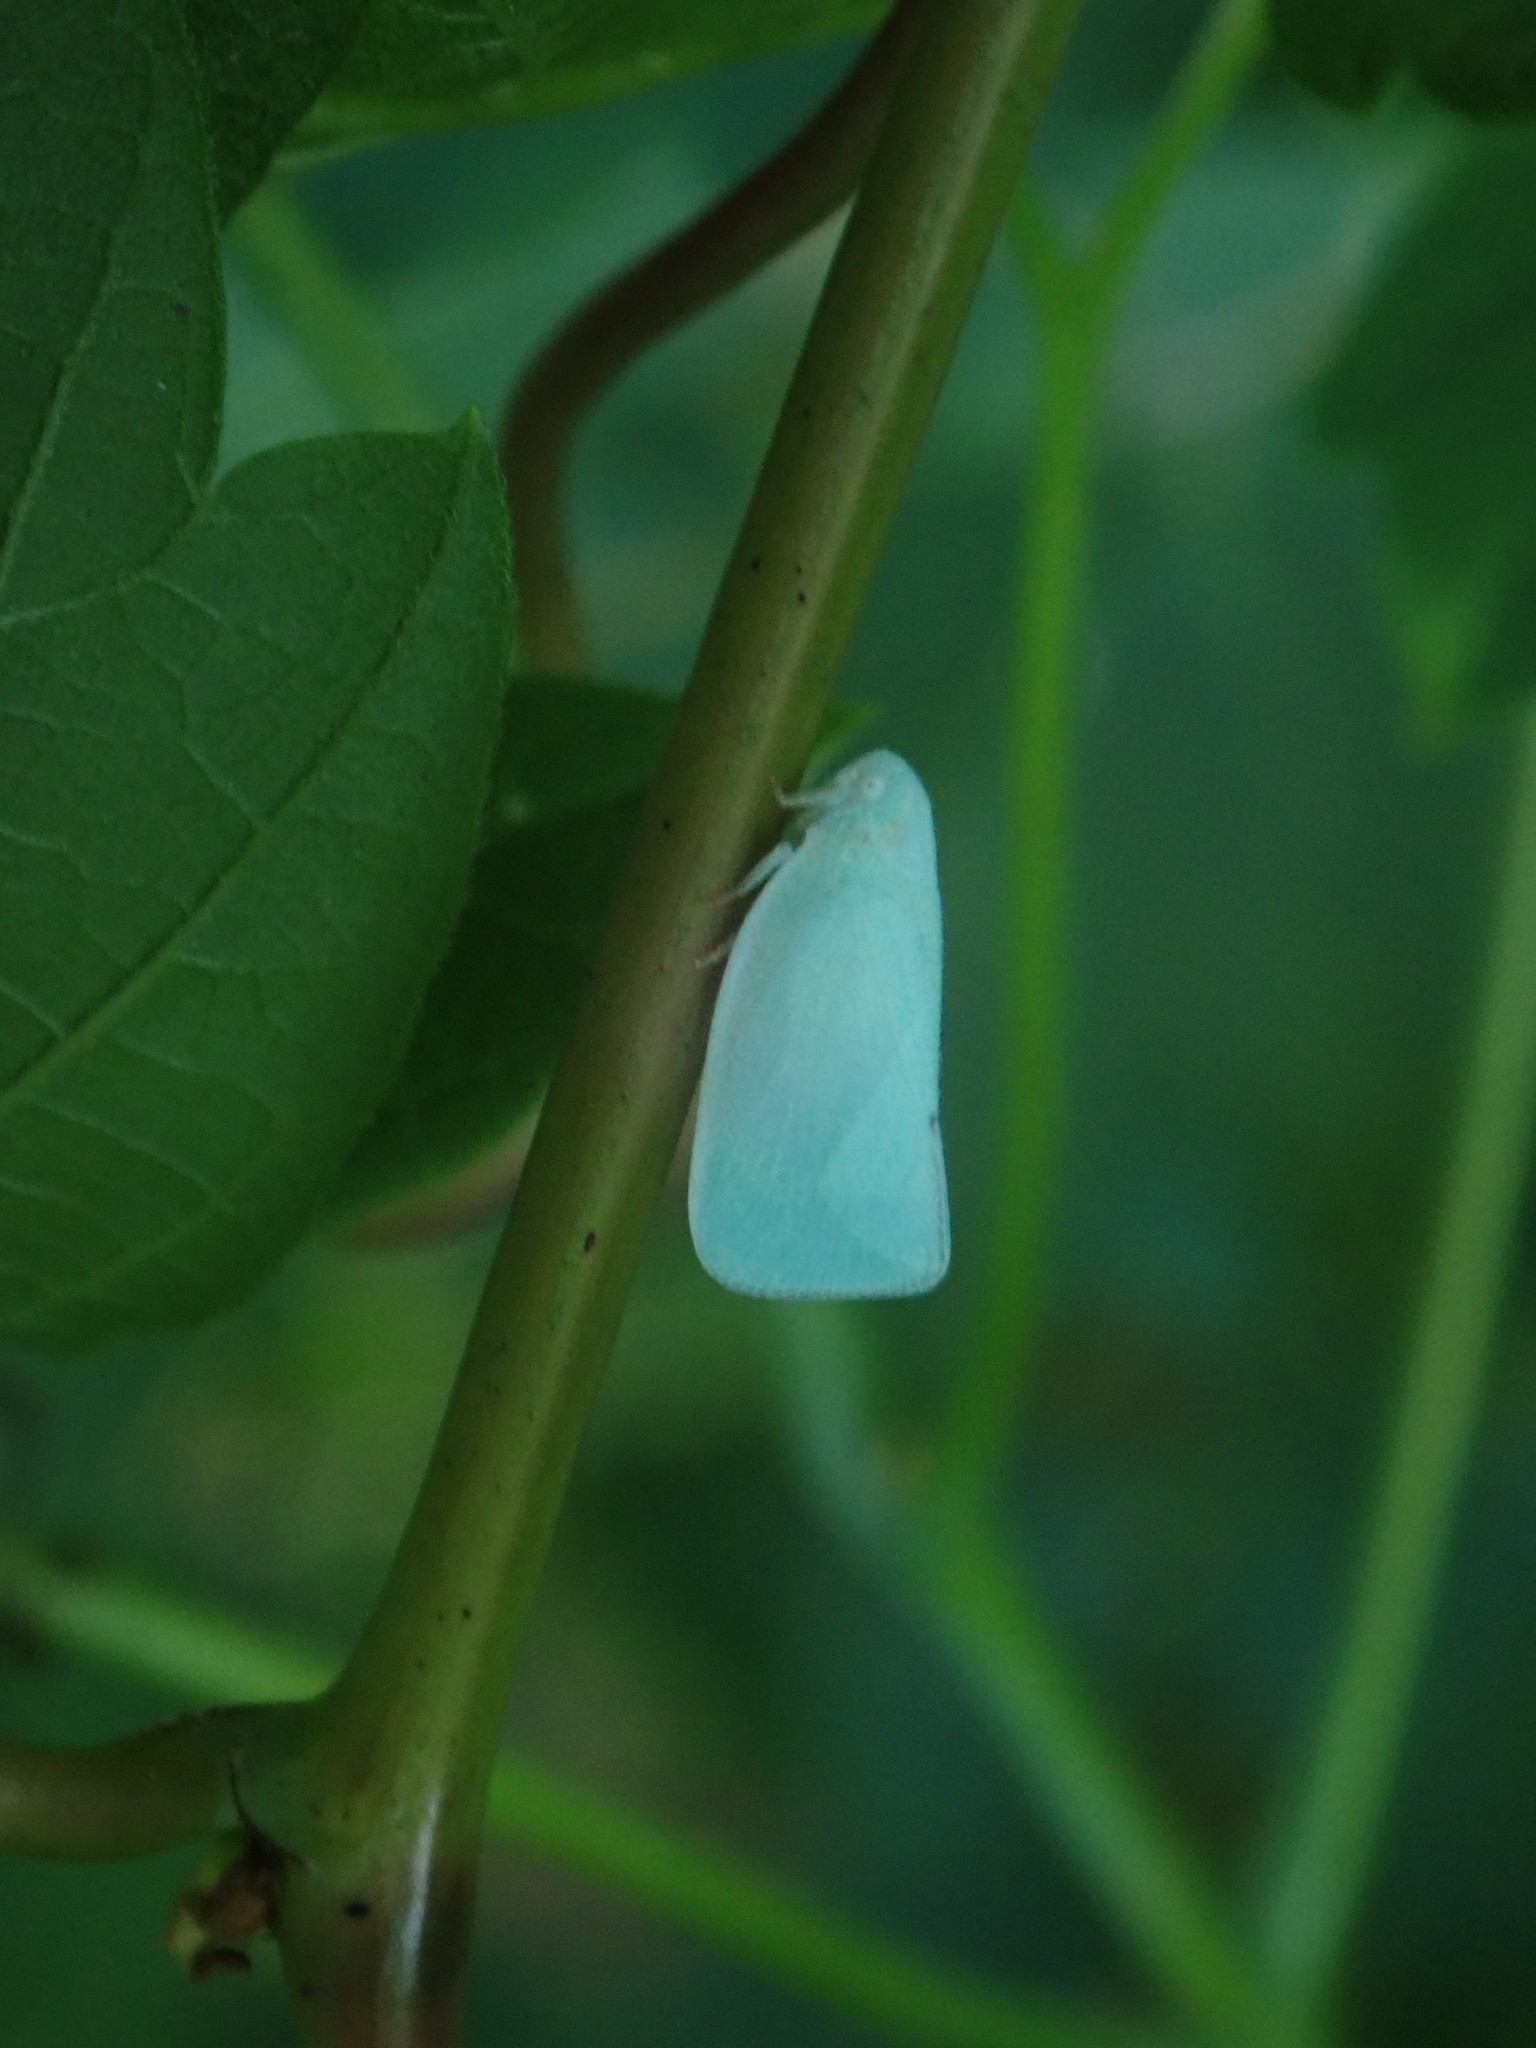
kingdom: Animalia
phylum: Arthropoda
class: Insecta
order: Hemiptera
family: Flatidae
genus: Flatormenis
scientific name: Flatormenis proxima
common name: Northern flatid planthopper
